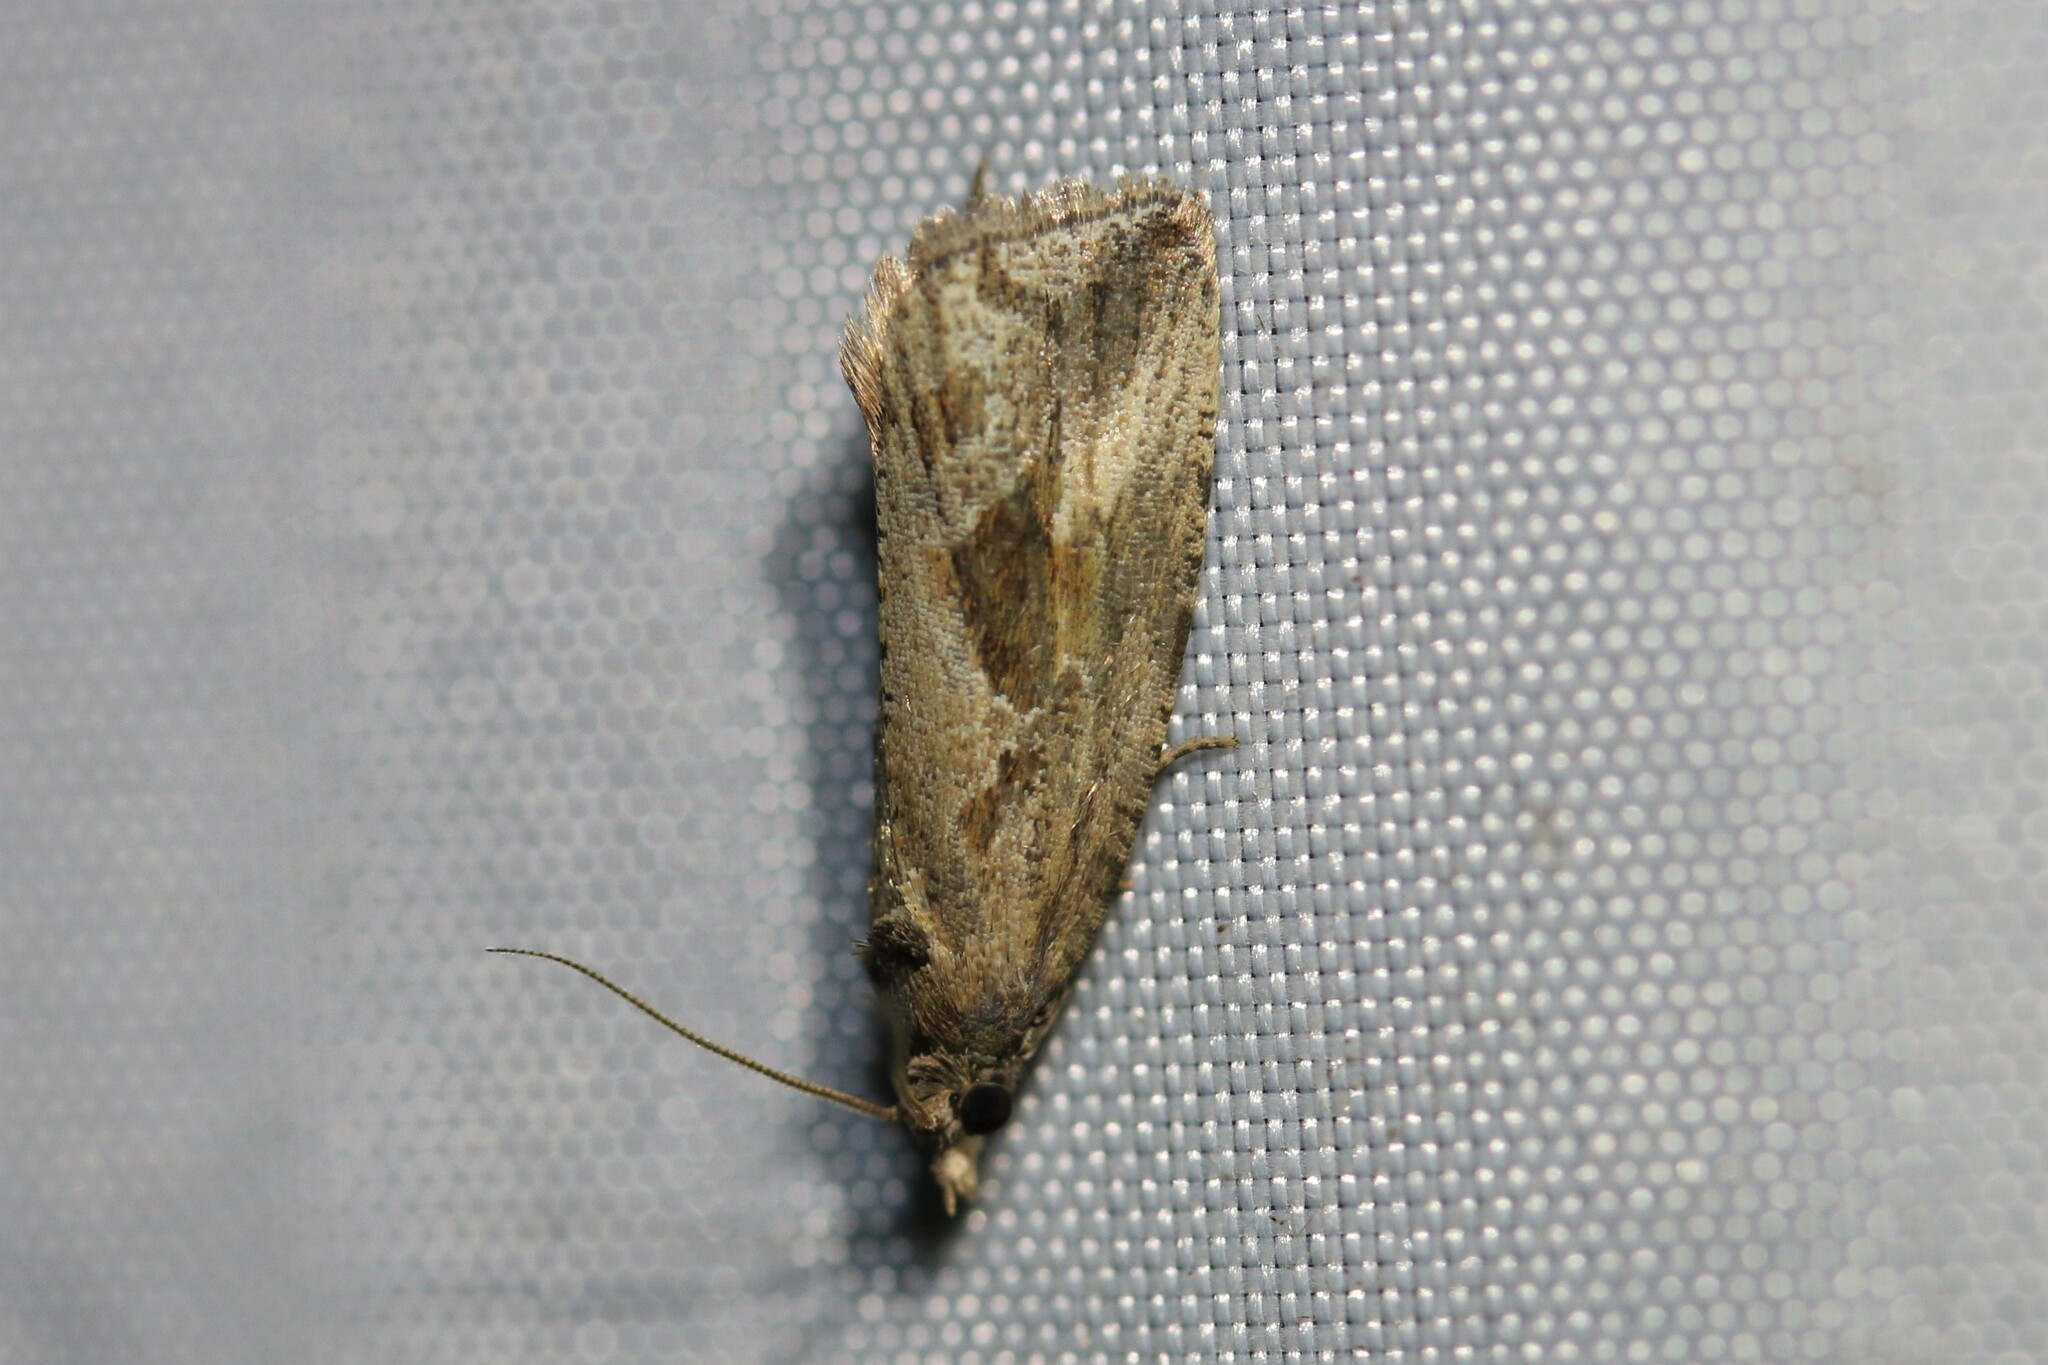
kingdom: Animalia
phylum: Arthropoda
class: Insecta
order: Lepidoptera
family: Tortricidae
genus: Endothenia
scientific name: Endothenia quadrimaculana
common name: Tortricid moth
